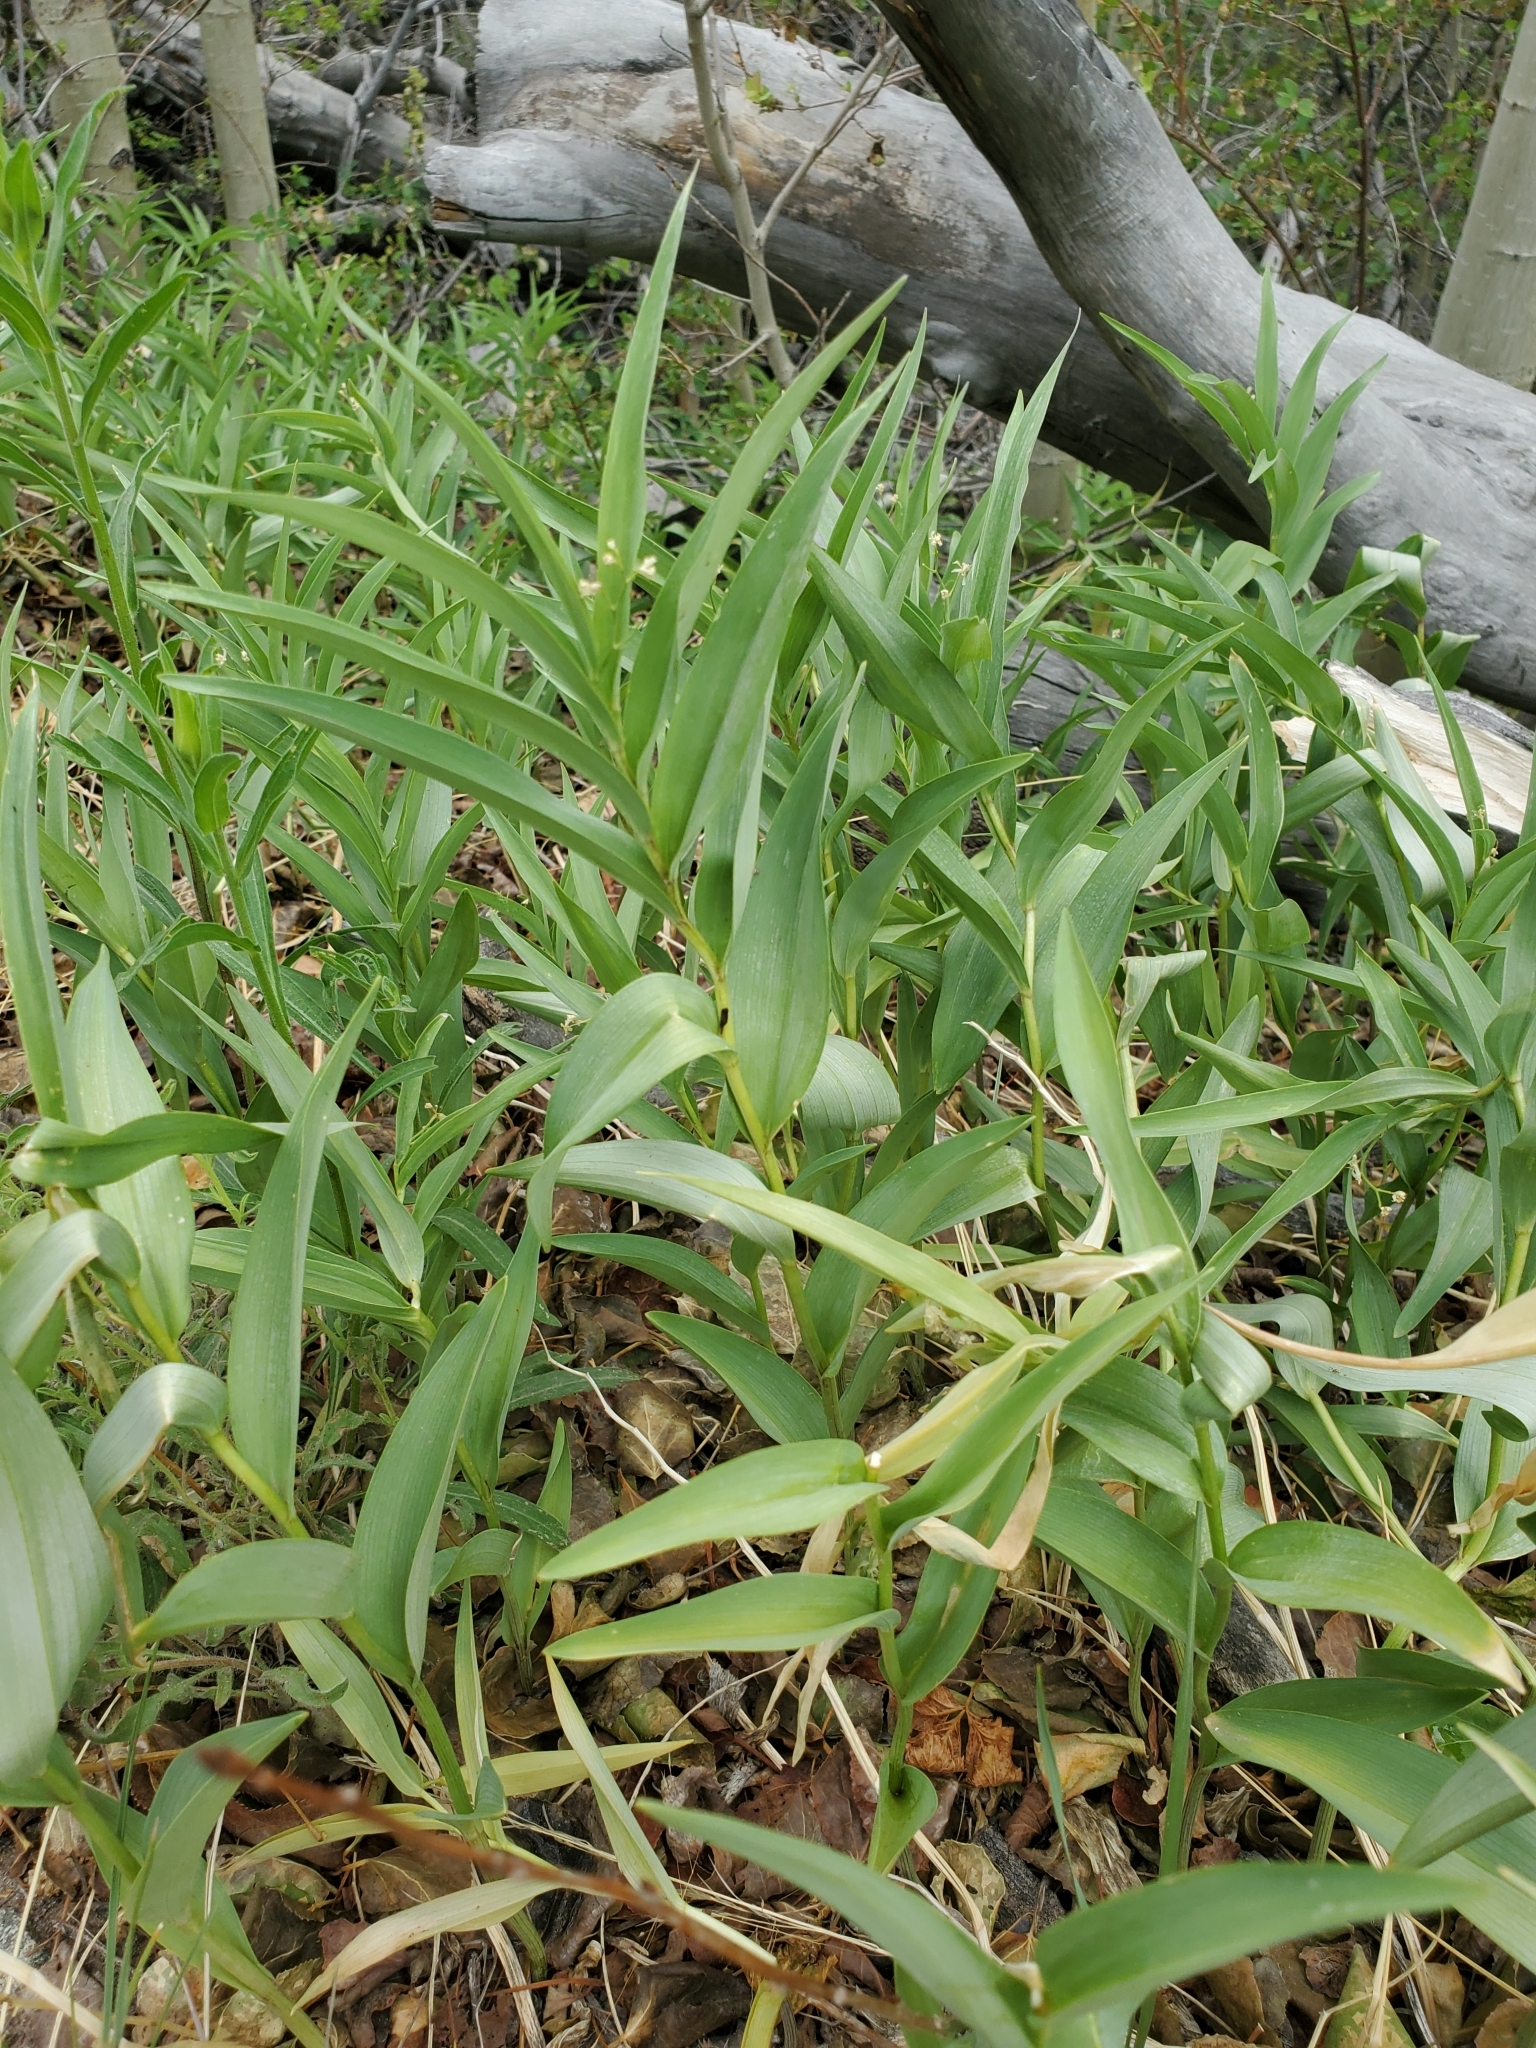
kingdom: Plantae
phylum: Tracheophyta
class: Liliopsida
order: Asparagales
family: Asparagaceae
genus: Maianthemum
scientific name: Maianthemum stellatum
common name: Little false solomon's seal
